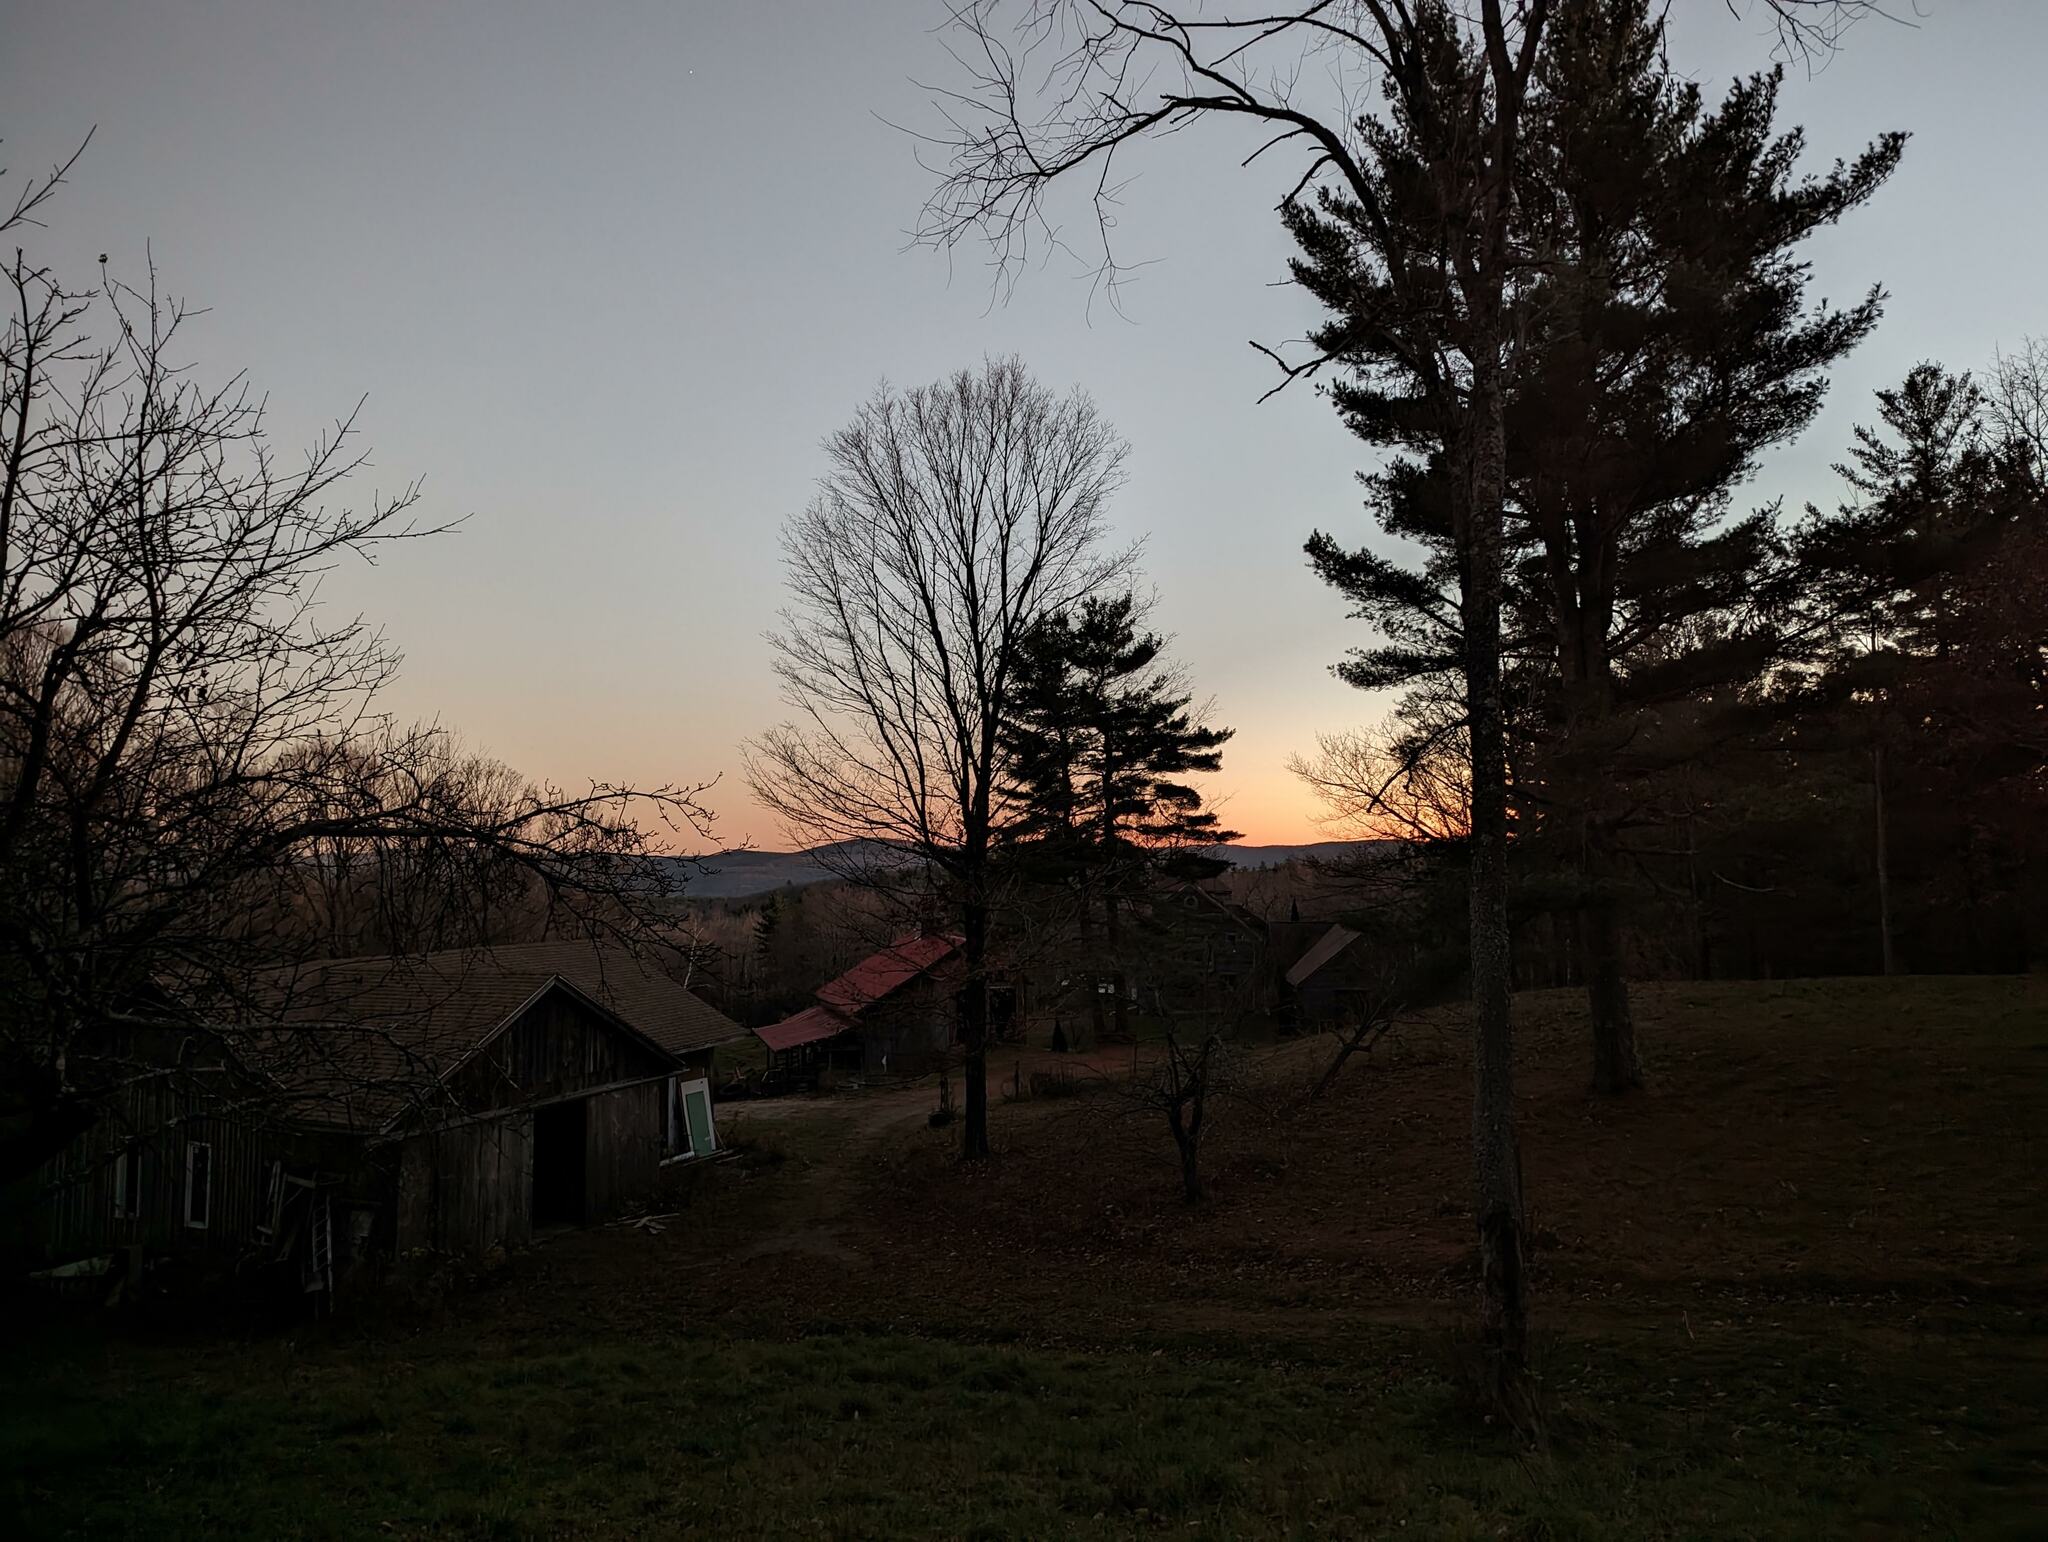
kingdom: Plantae
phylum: Tracheophyta
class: Pinopsida
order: Pinales
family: Pinaceae
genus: Pinus
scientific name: Pinus strobus
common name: Weymouth pine
